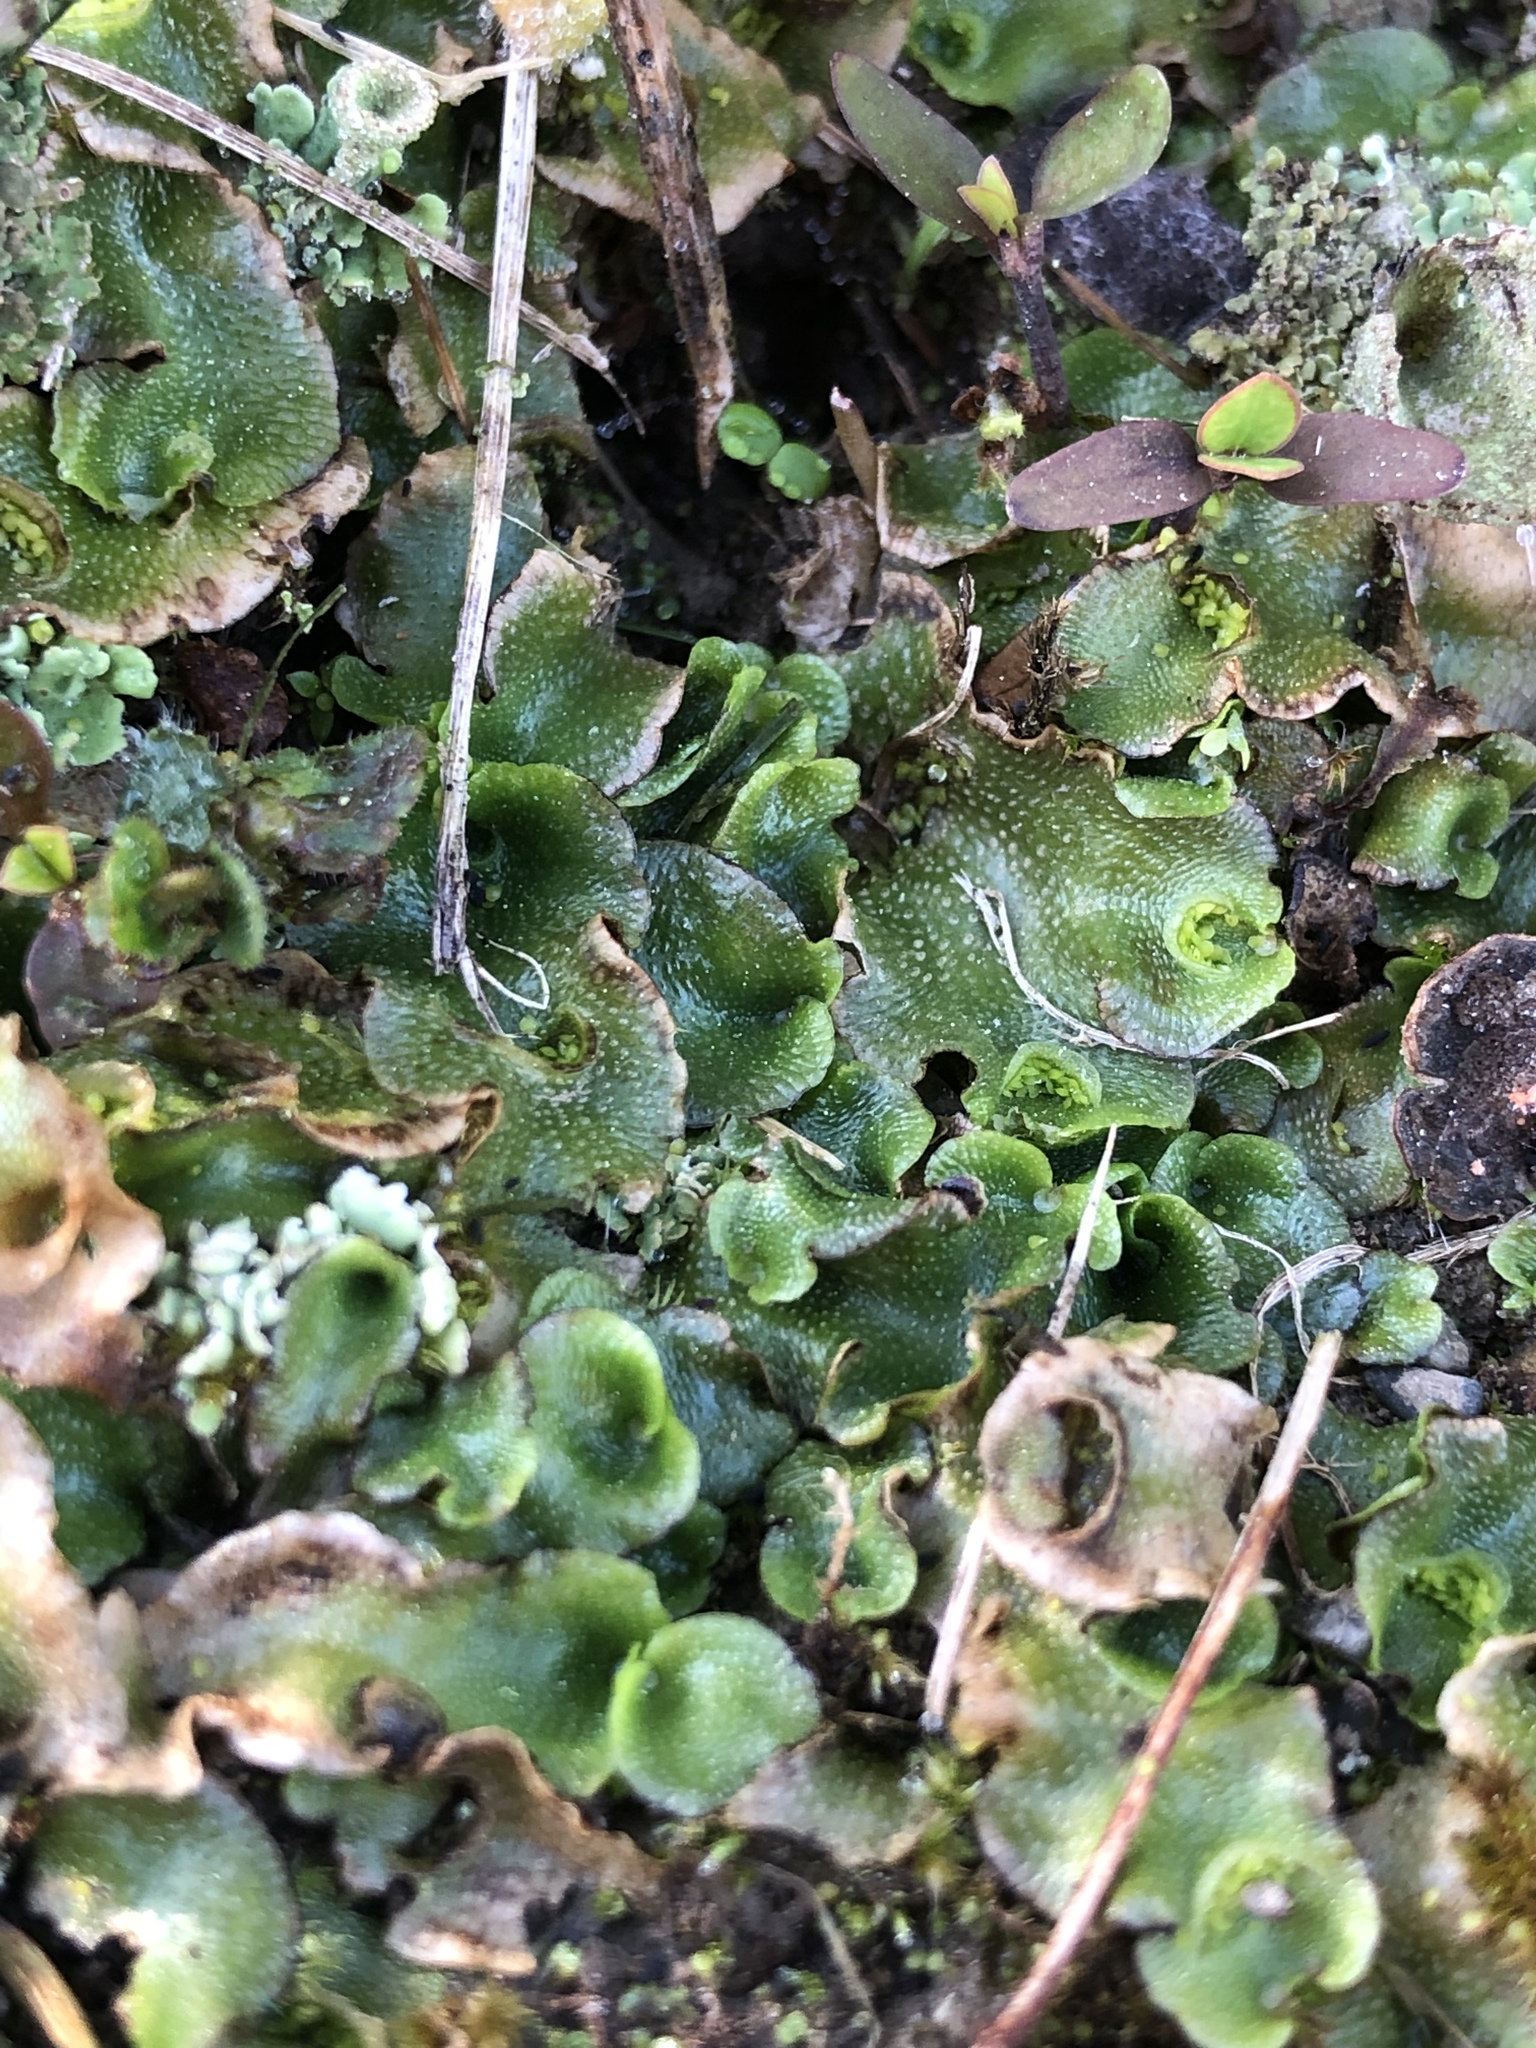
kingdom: Plantae
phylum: Marchantiophyta
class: Marchantiopsida
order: Lunulariales
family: Lunulariaceae
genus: Lunularia
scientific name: Lunularia cruciata
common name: Crescent-cup liverwort
